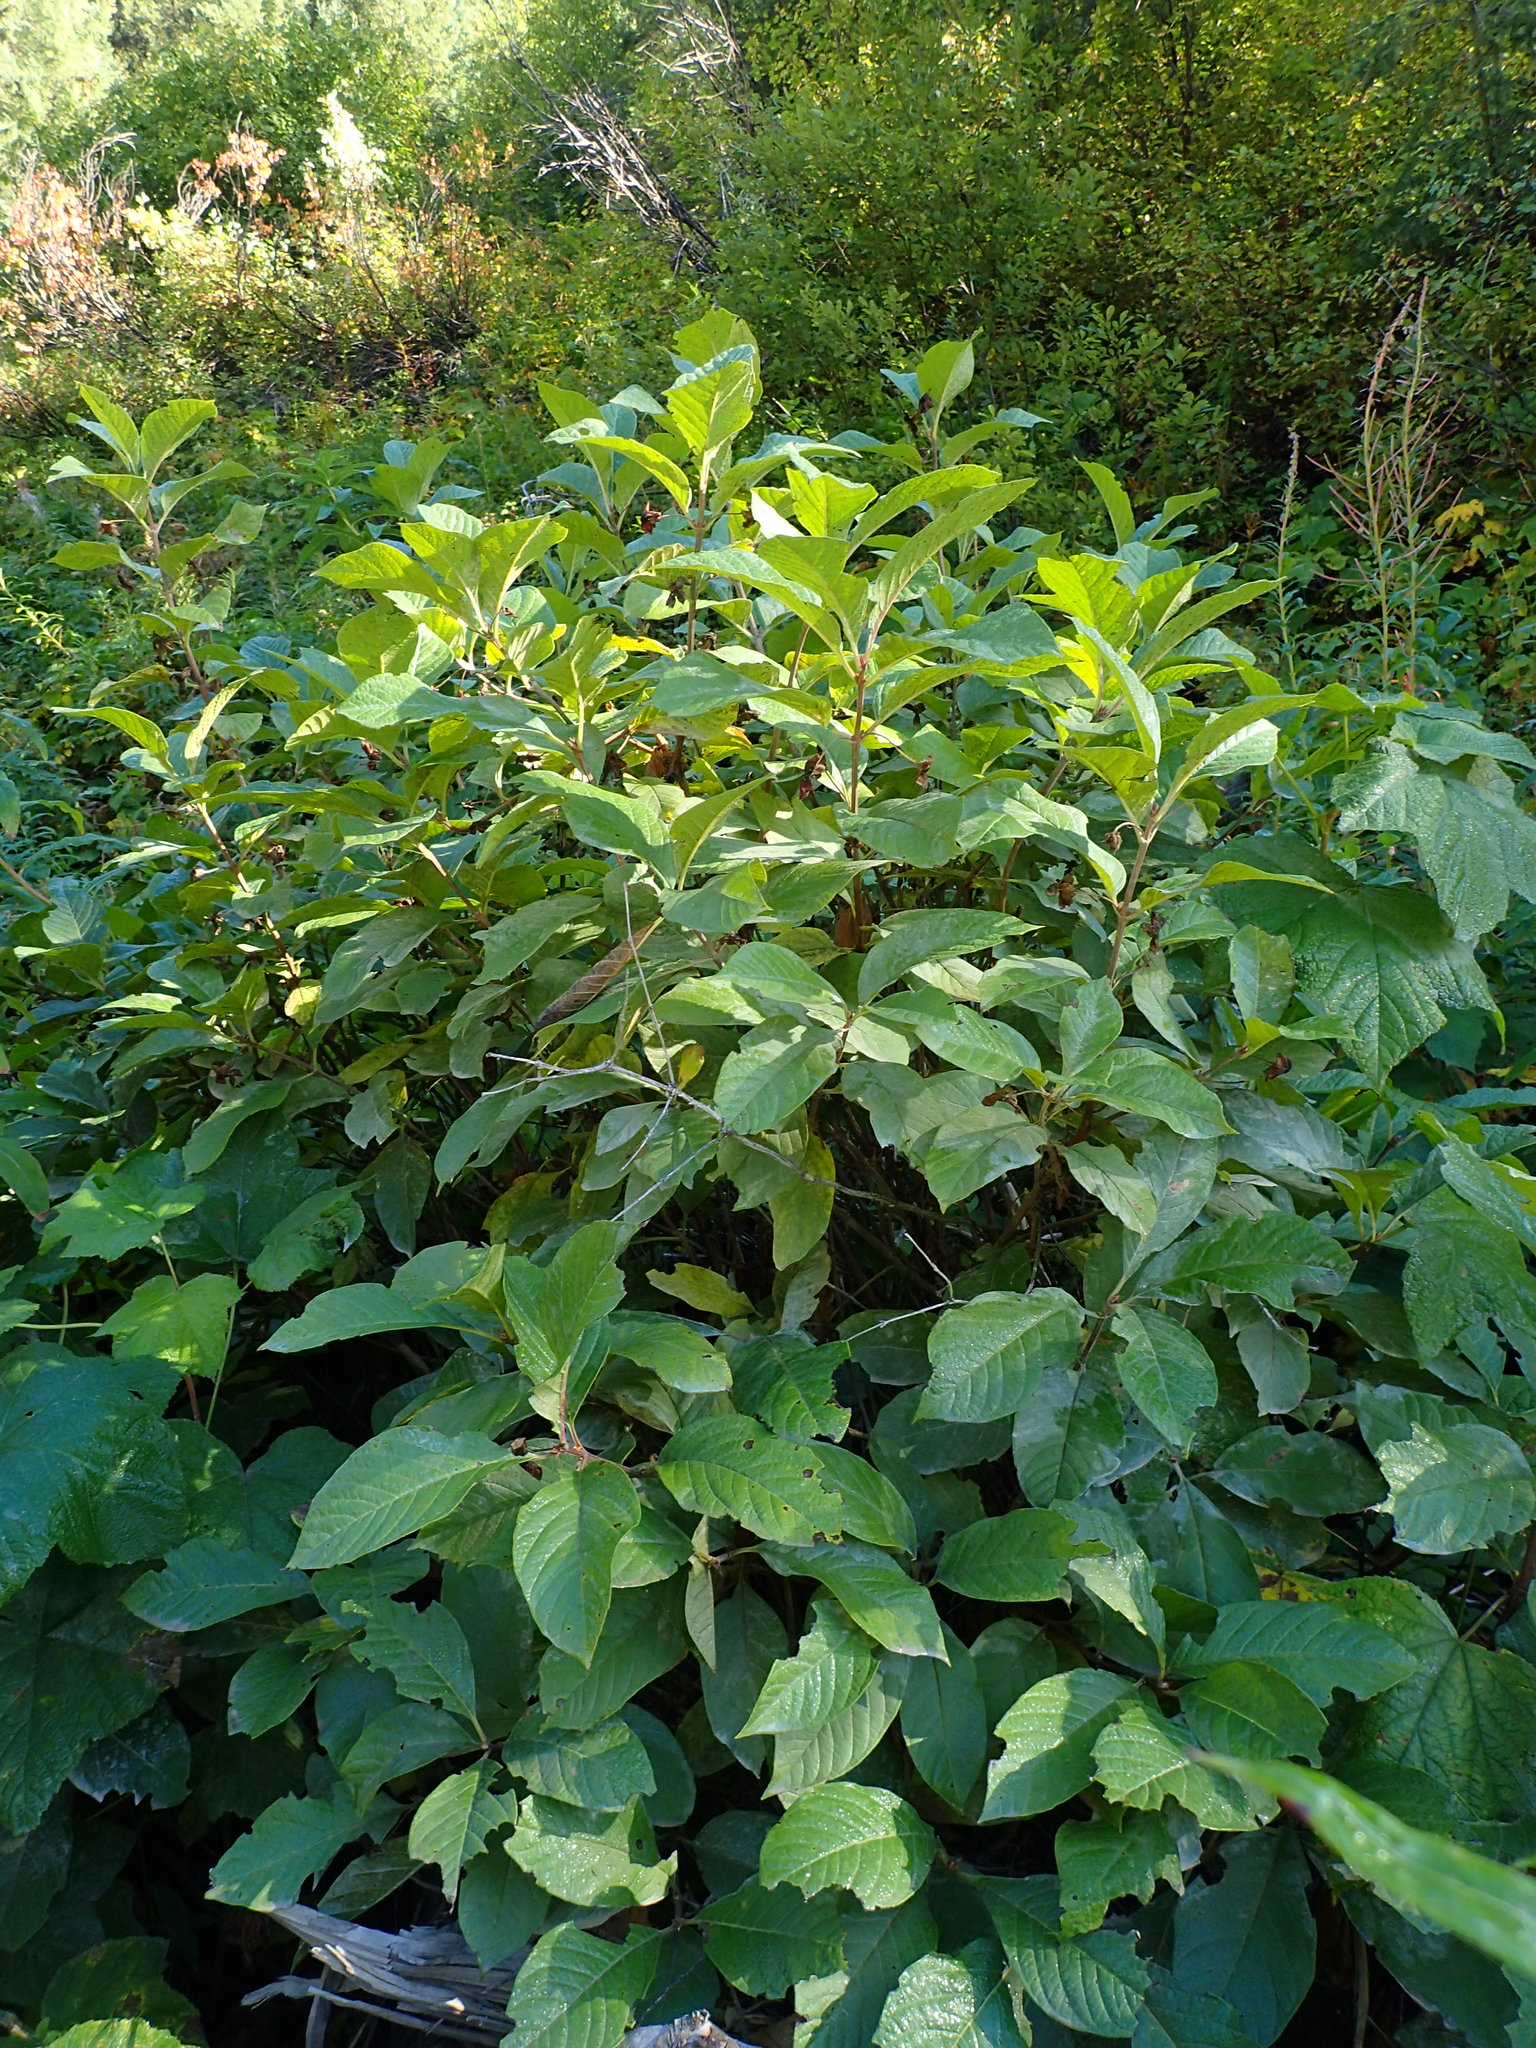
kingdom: Plantae
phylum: Tracheophyta
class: Magnoliopsida
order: Dipsacales
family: Caprifoliaceae
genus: Lonicera
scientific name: Lonicera involucrata
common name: Californian honeysuckle
